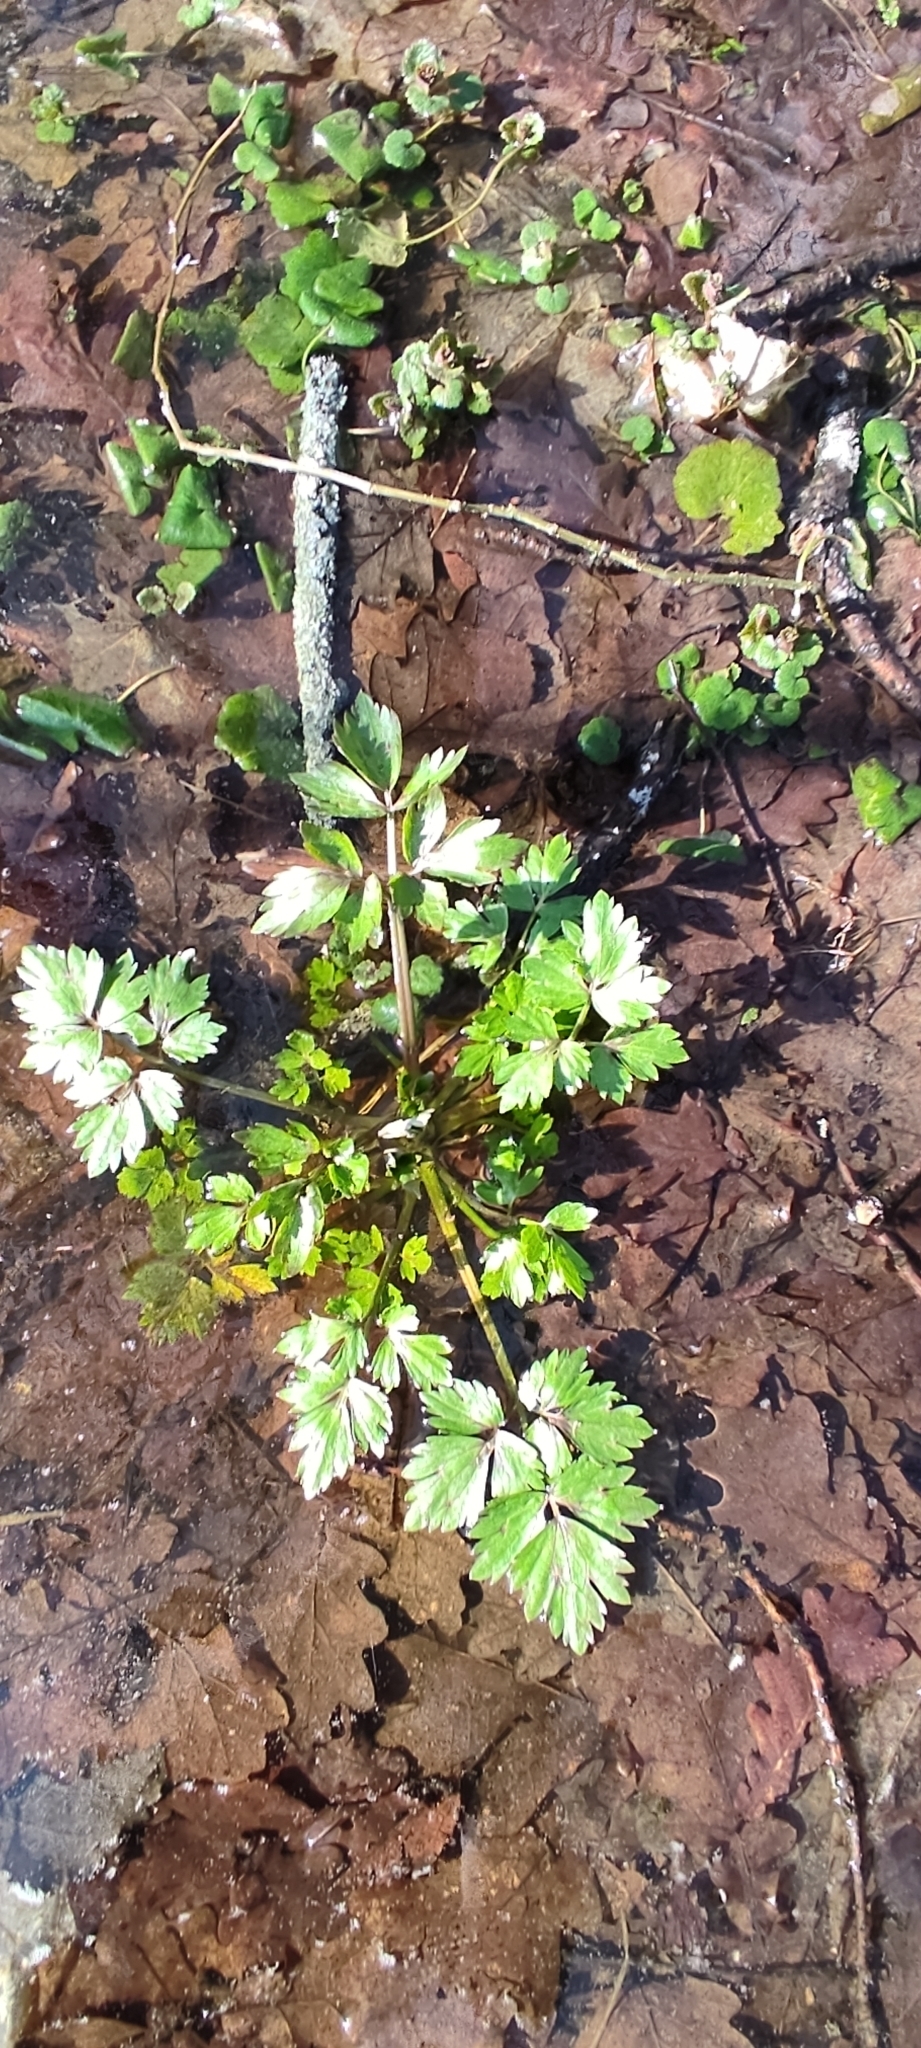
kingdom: Plantae
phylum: Tracheophyta
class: Magnoliopsida
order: Ranunculales
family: Ranunculaceae
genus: Ranunculus
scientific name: Ranunculus repens
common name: Creeping buttercup
